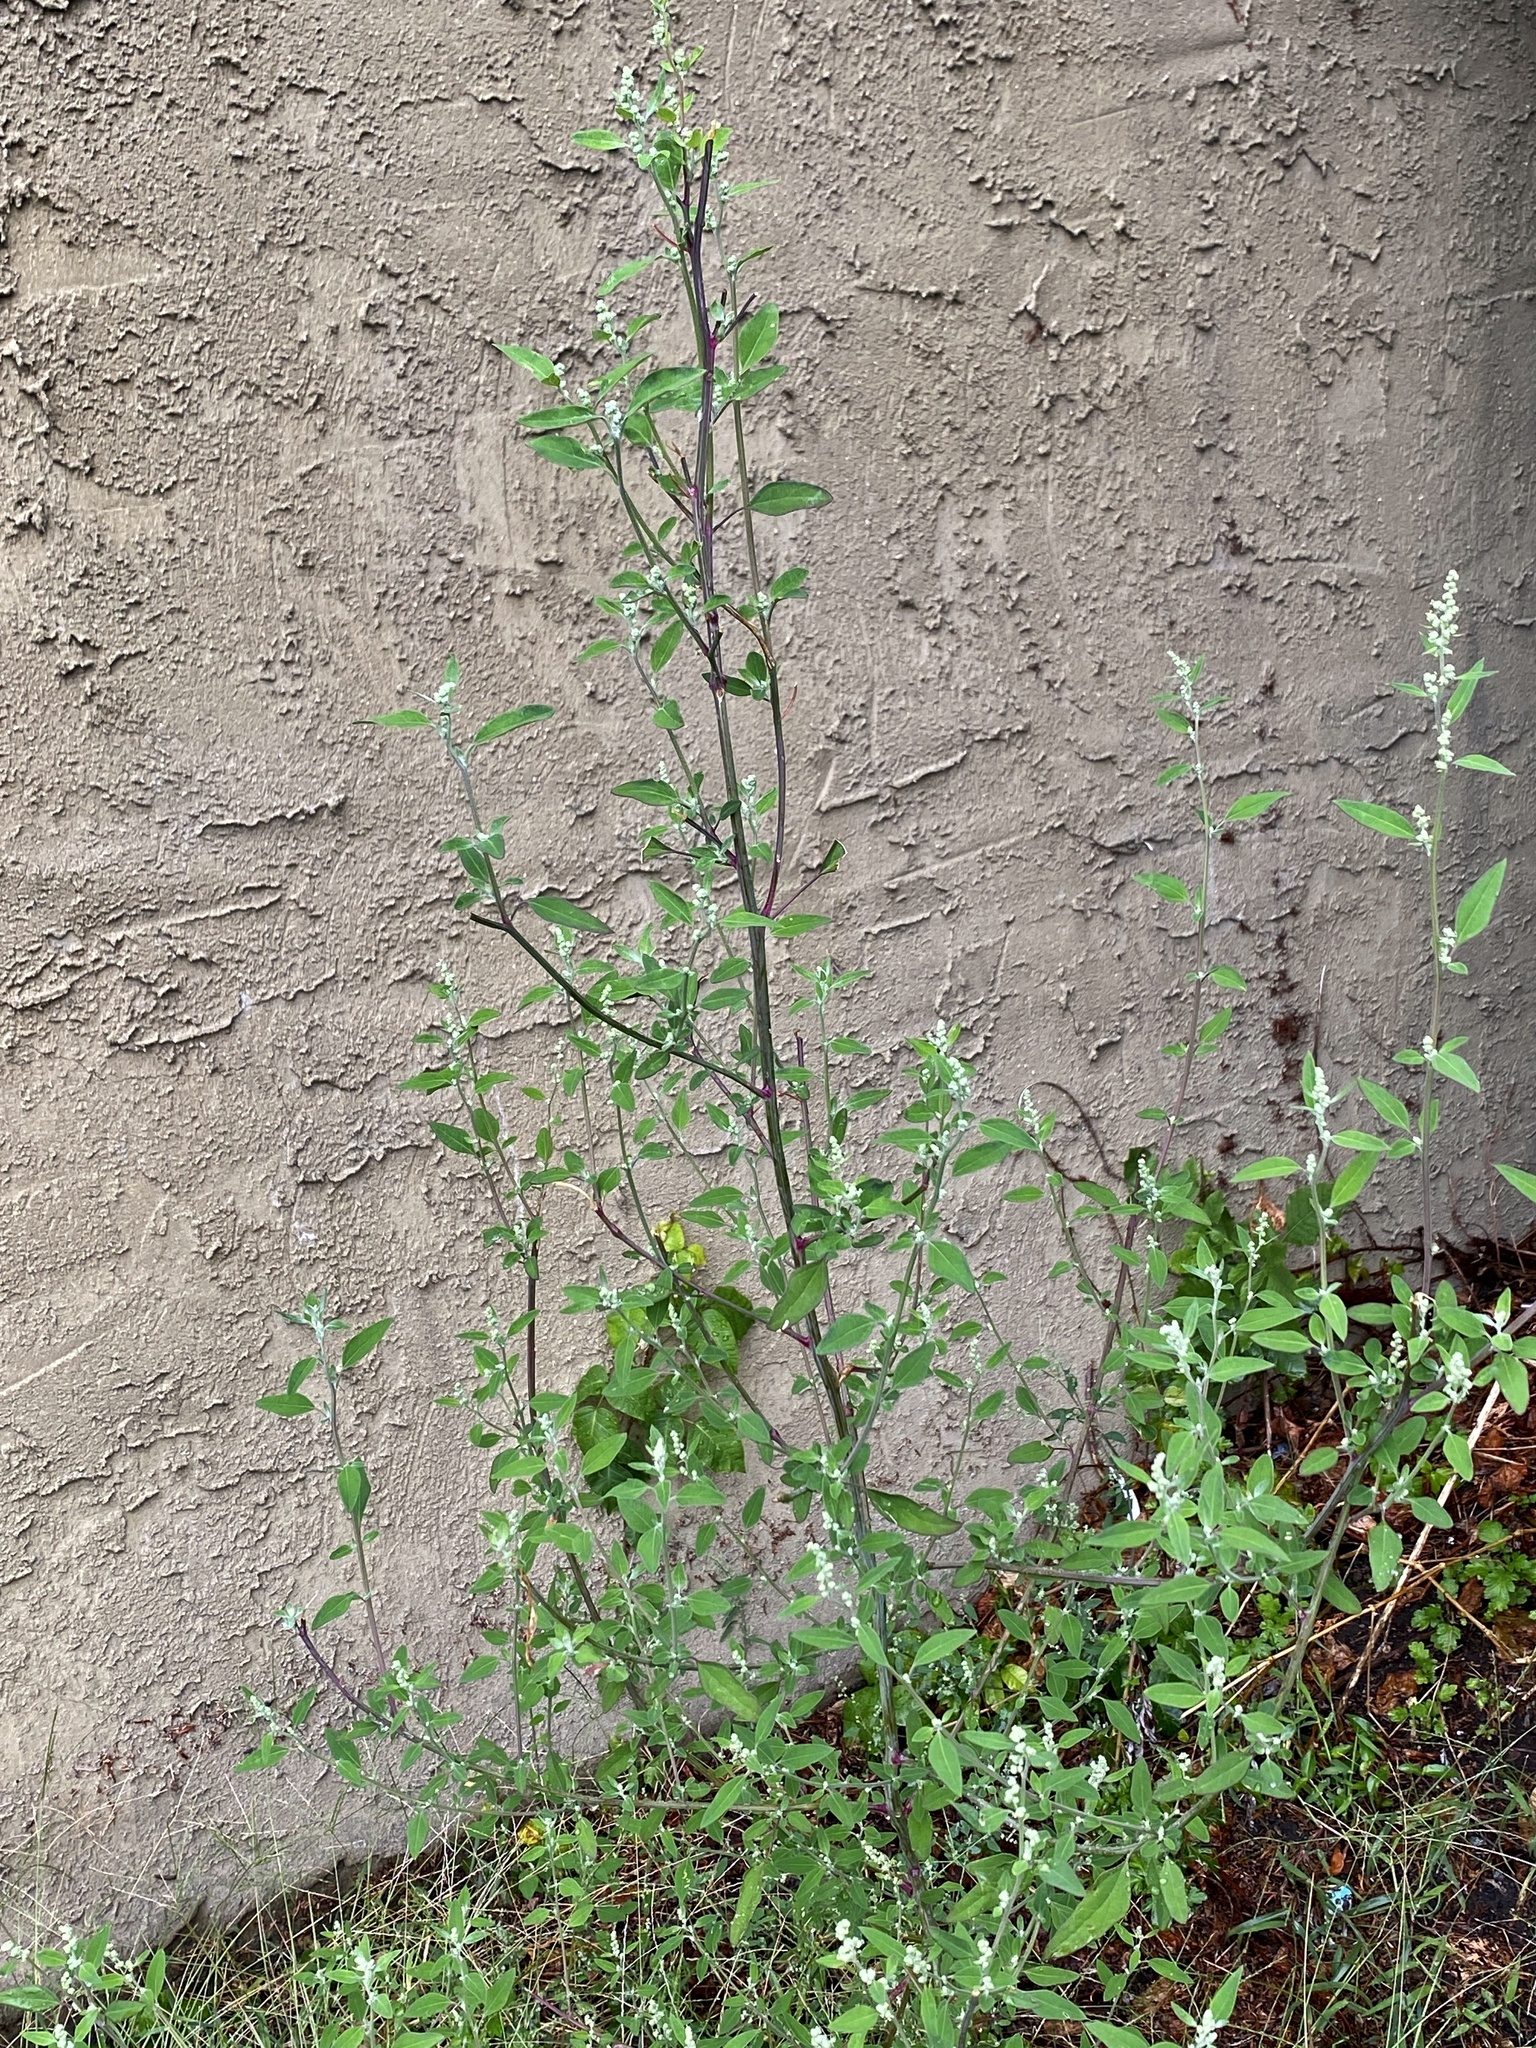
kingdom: Plantae
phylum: Tracheophyta
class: Magnoliopsida
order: Caryophyllales
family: Amaranthaceae
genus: Chenopodium
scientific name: Chenopodium album
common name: Fat-hen
